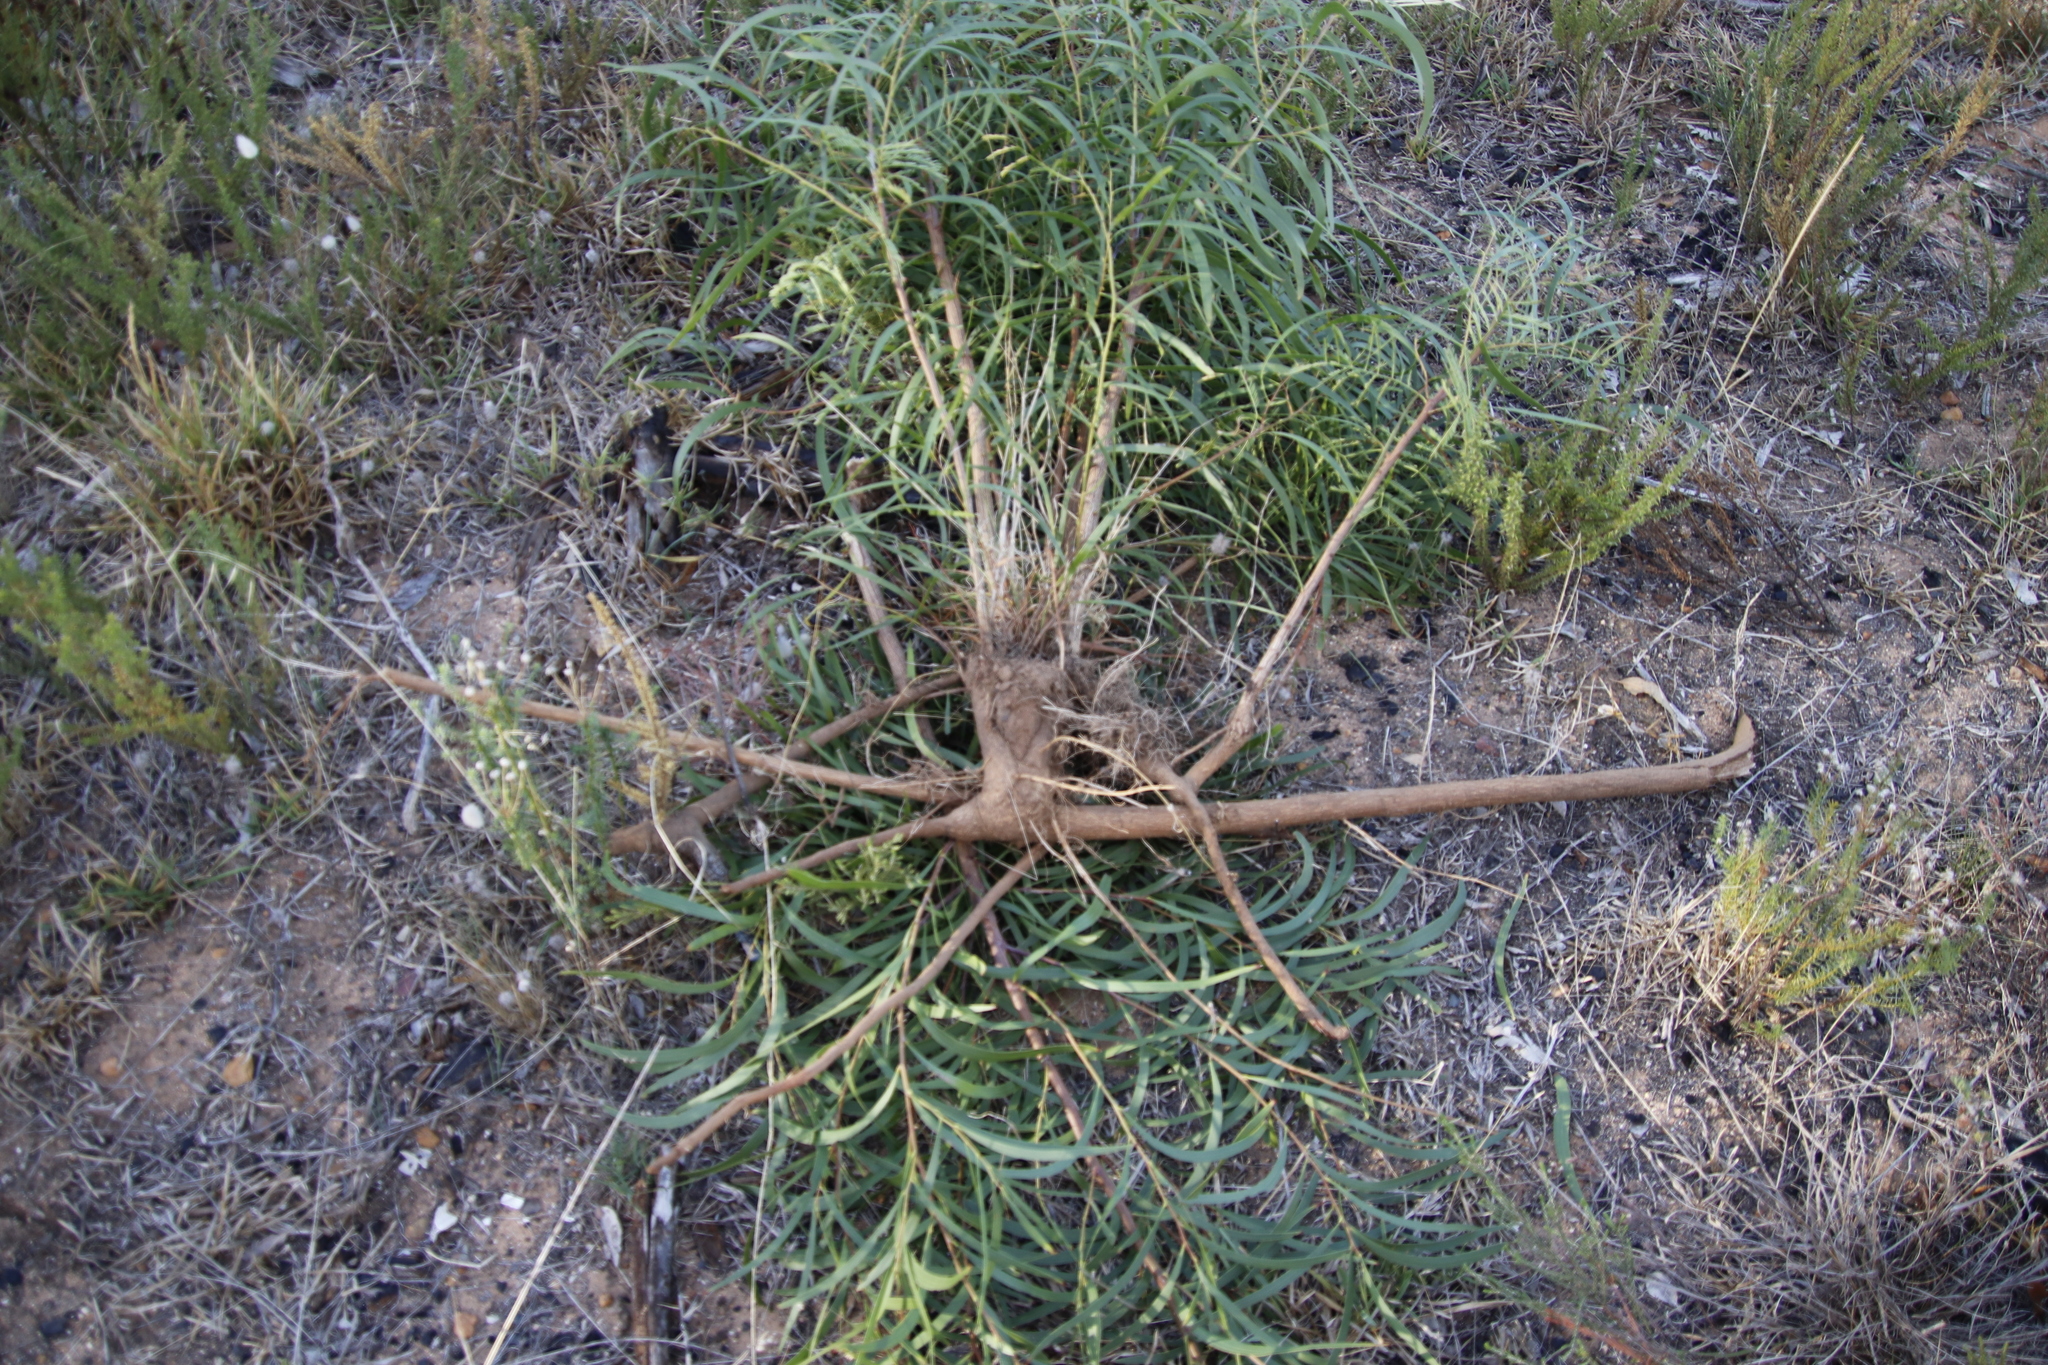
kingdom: Plantae
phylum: Tracheophyta
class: Magnoliopsida
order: Fabales
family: Fabaceae
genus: Acacia
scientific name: Acacia implexa
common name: Black wattle
